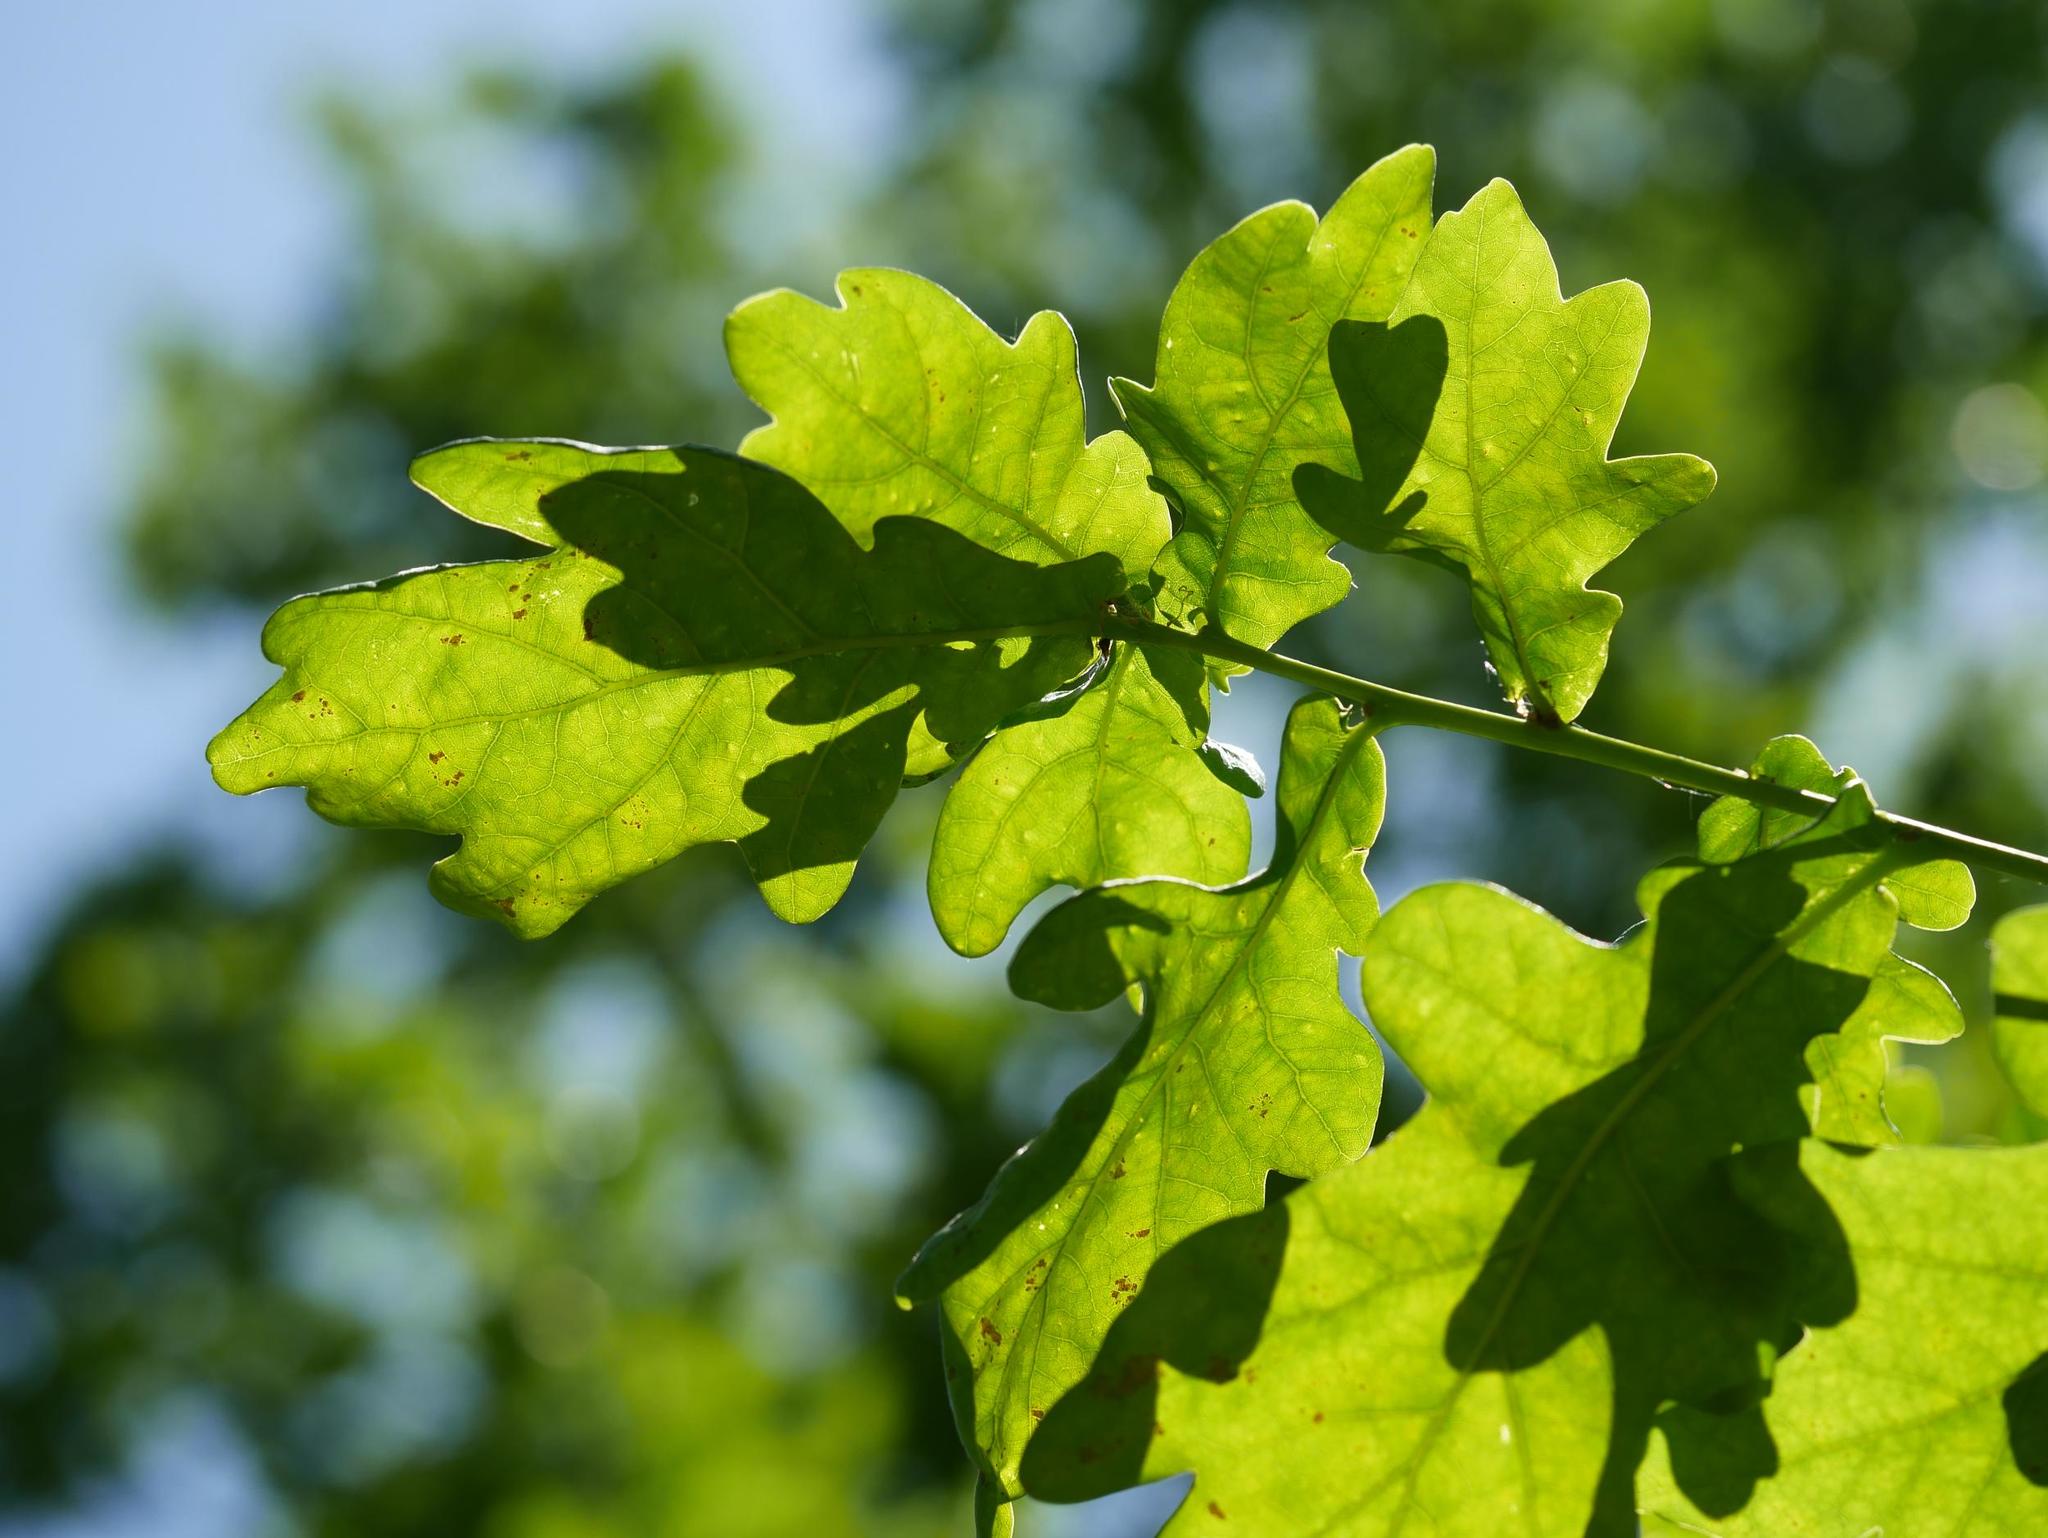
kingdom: Plantae
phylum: Tracheophyta
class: Magnoliopsida
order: Fagales
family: Fagaceae
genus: Quercus
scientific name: Quercus robur
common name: Pedunculate oak
